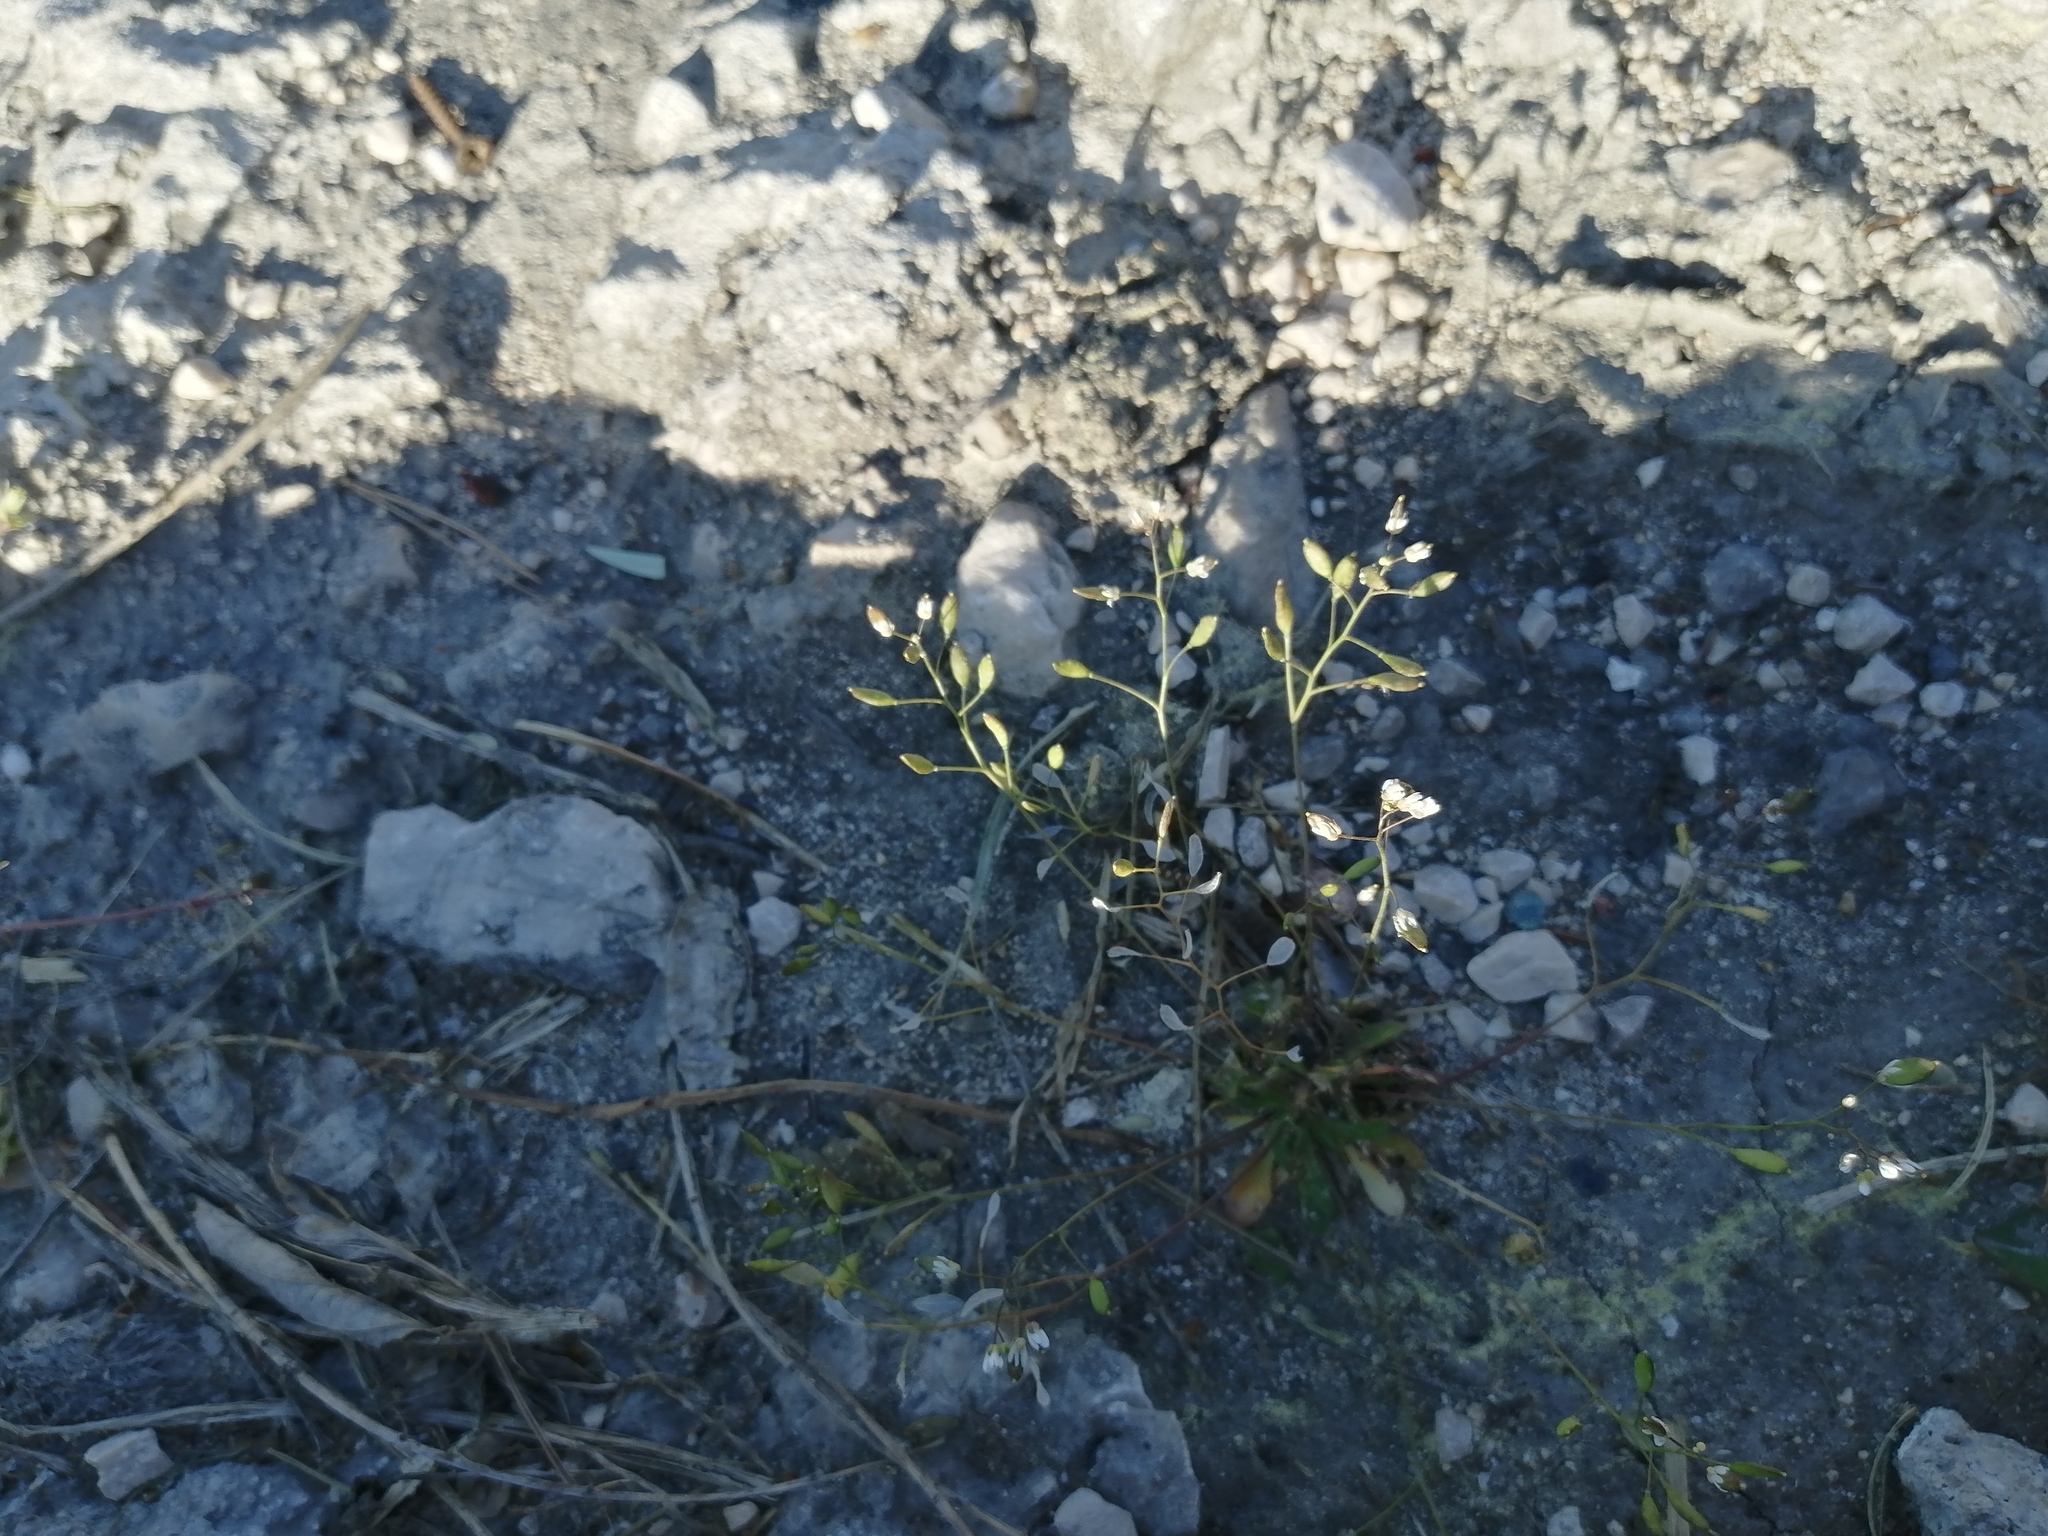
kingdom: Plantae
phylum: Tracheophyta
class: Magnoliopsida
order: Brassicales
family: Brassicaceae
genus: Draba
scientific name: Draba verna
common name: Spring draba
